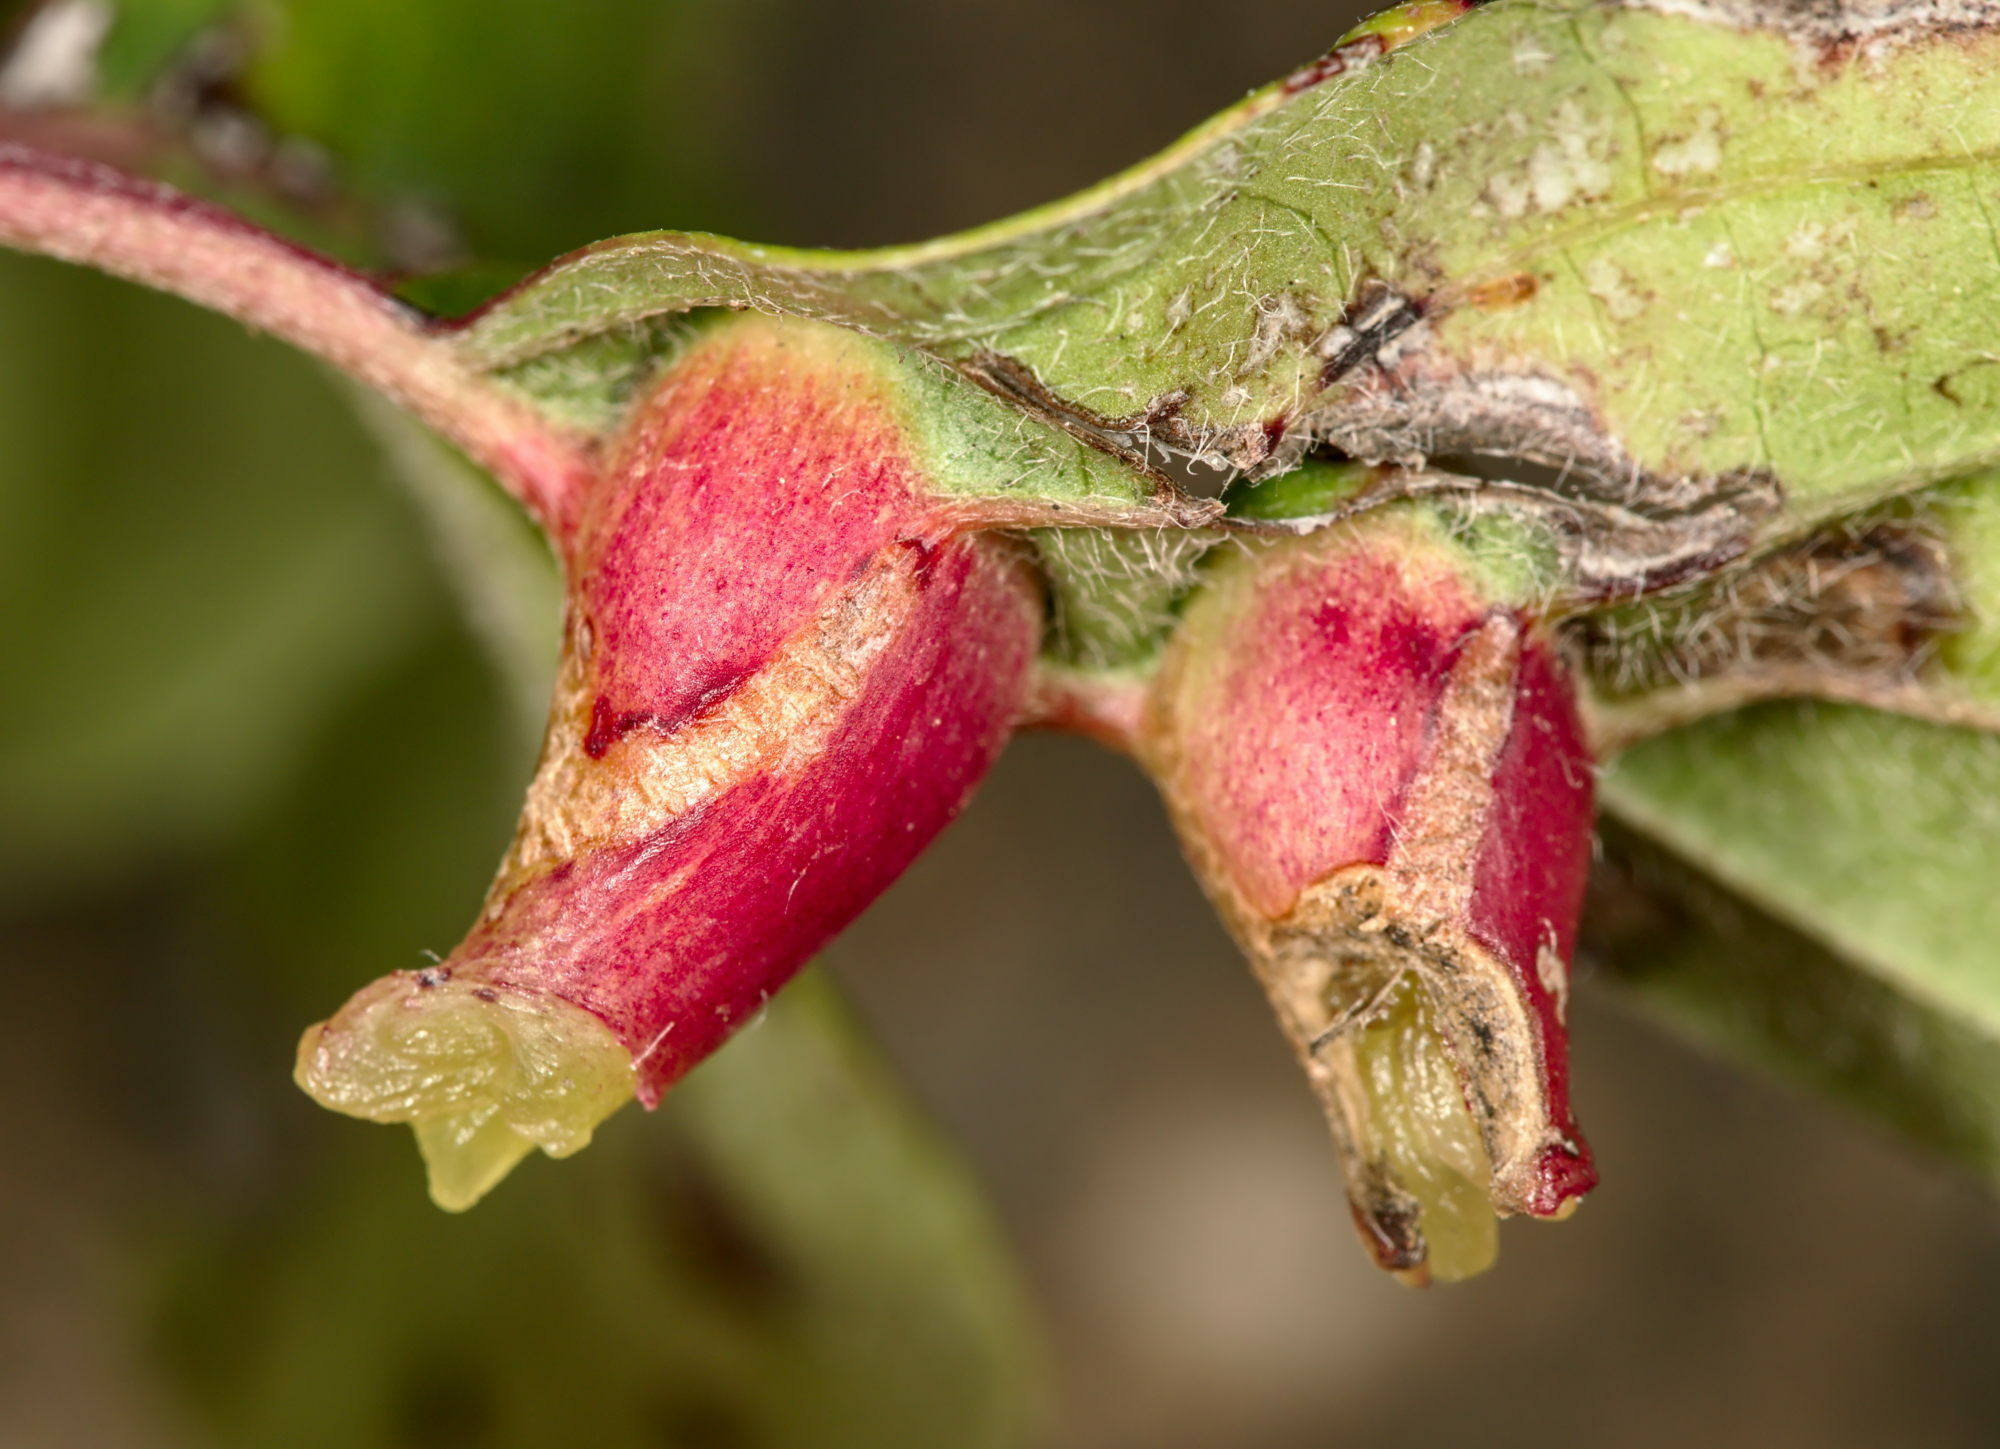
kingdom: Animalia
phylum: Arthropoda
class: Insecta
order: Diptera
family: Cecidomyiidae
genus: Craneiobia
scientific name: Craneiobia corni
